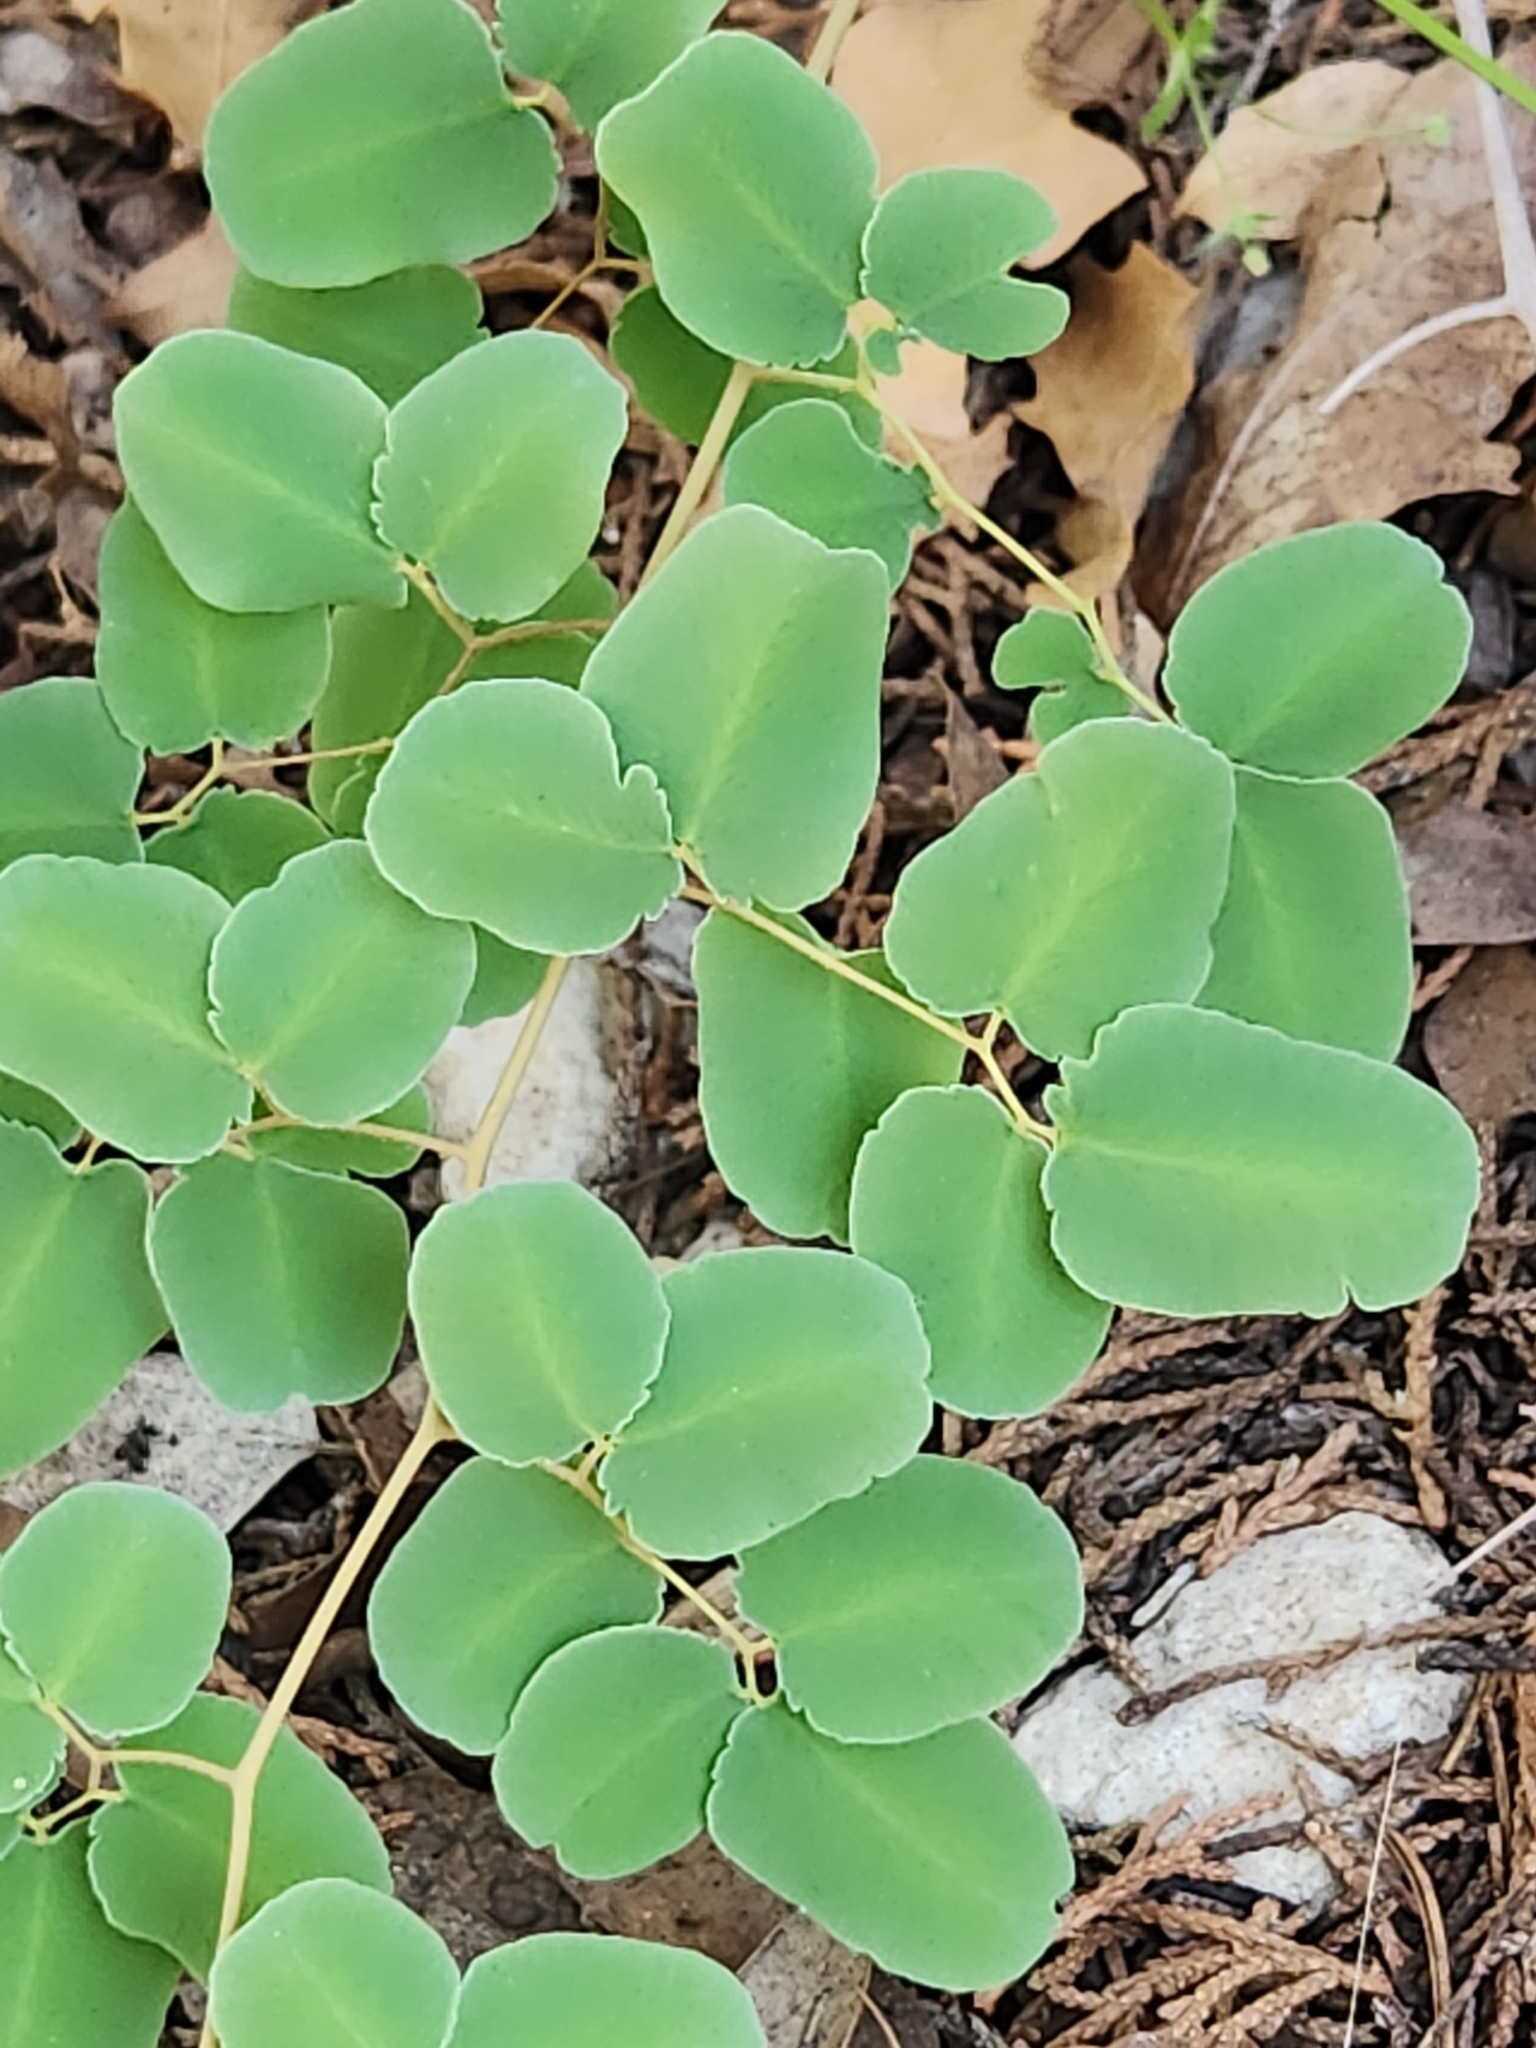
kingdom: Plantae
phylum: Tracheophyta
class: Polypodiopsida
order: Polypodiales
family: Pteridaceae
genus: Pellaea
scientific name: Pellaea ovata
